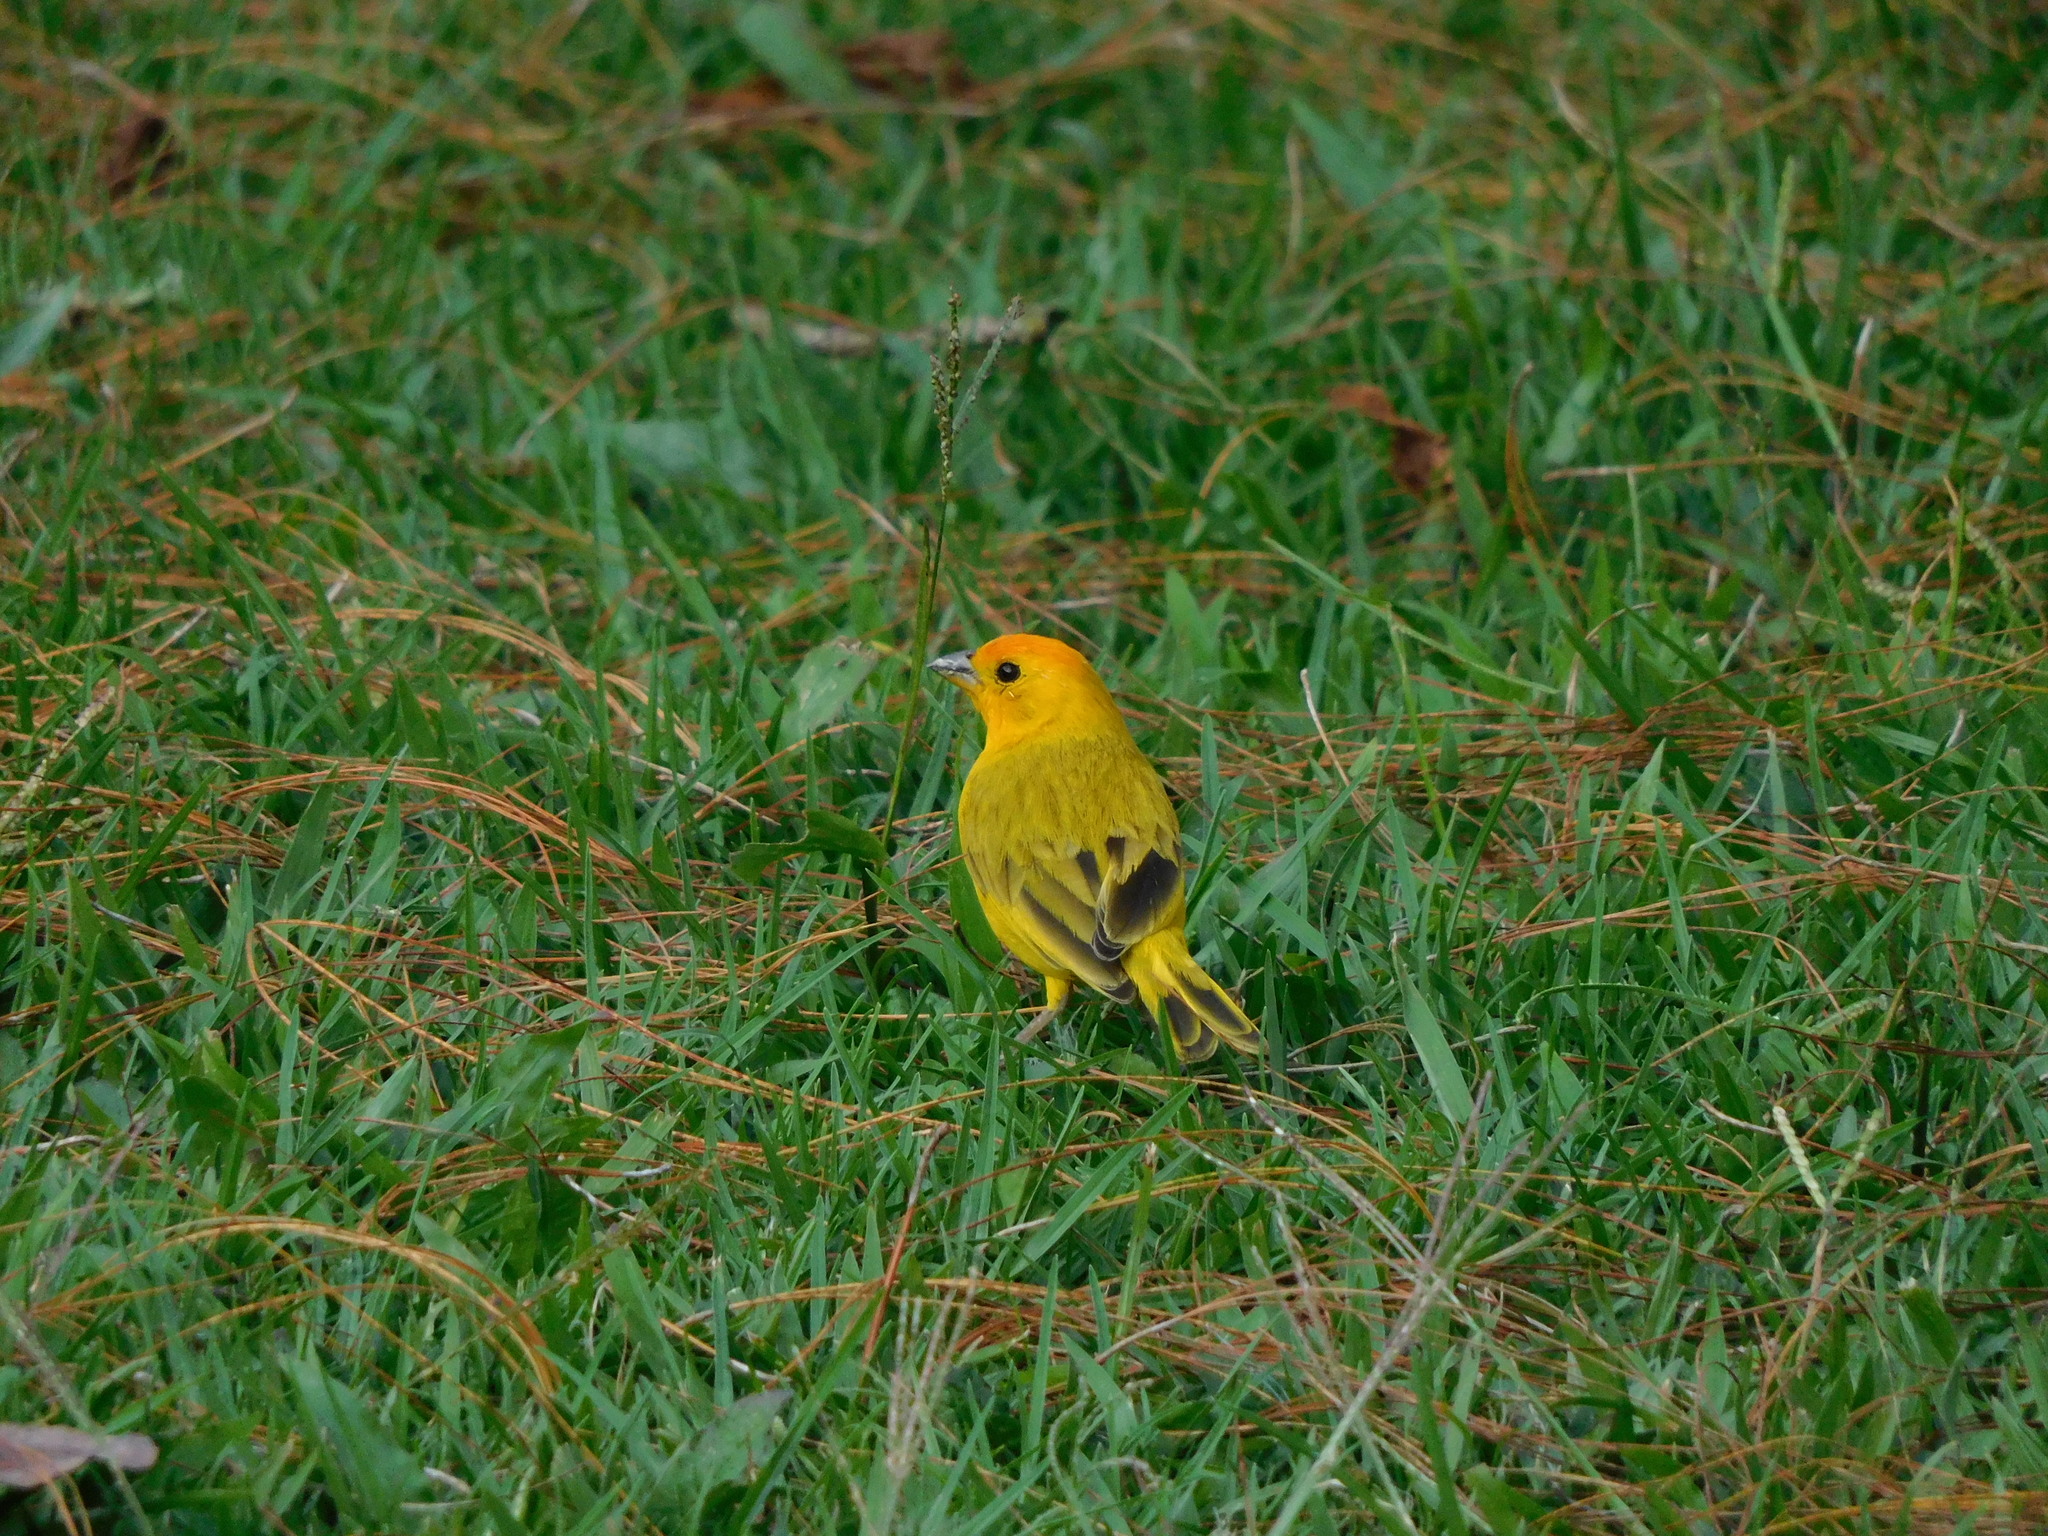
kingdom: Animalia
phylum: Chordata
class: Aves
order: Passeriformes
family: Thraupidae
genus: Sicalis
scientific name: Sicalis flaveola
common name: Saffron finch
